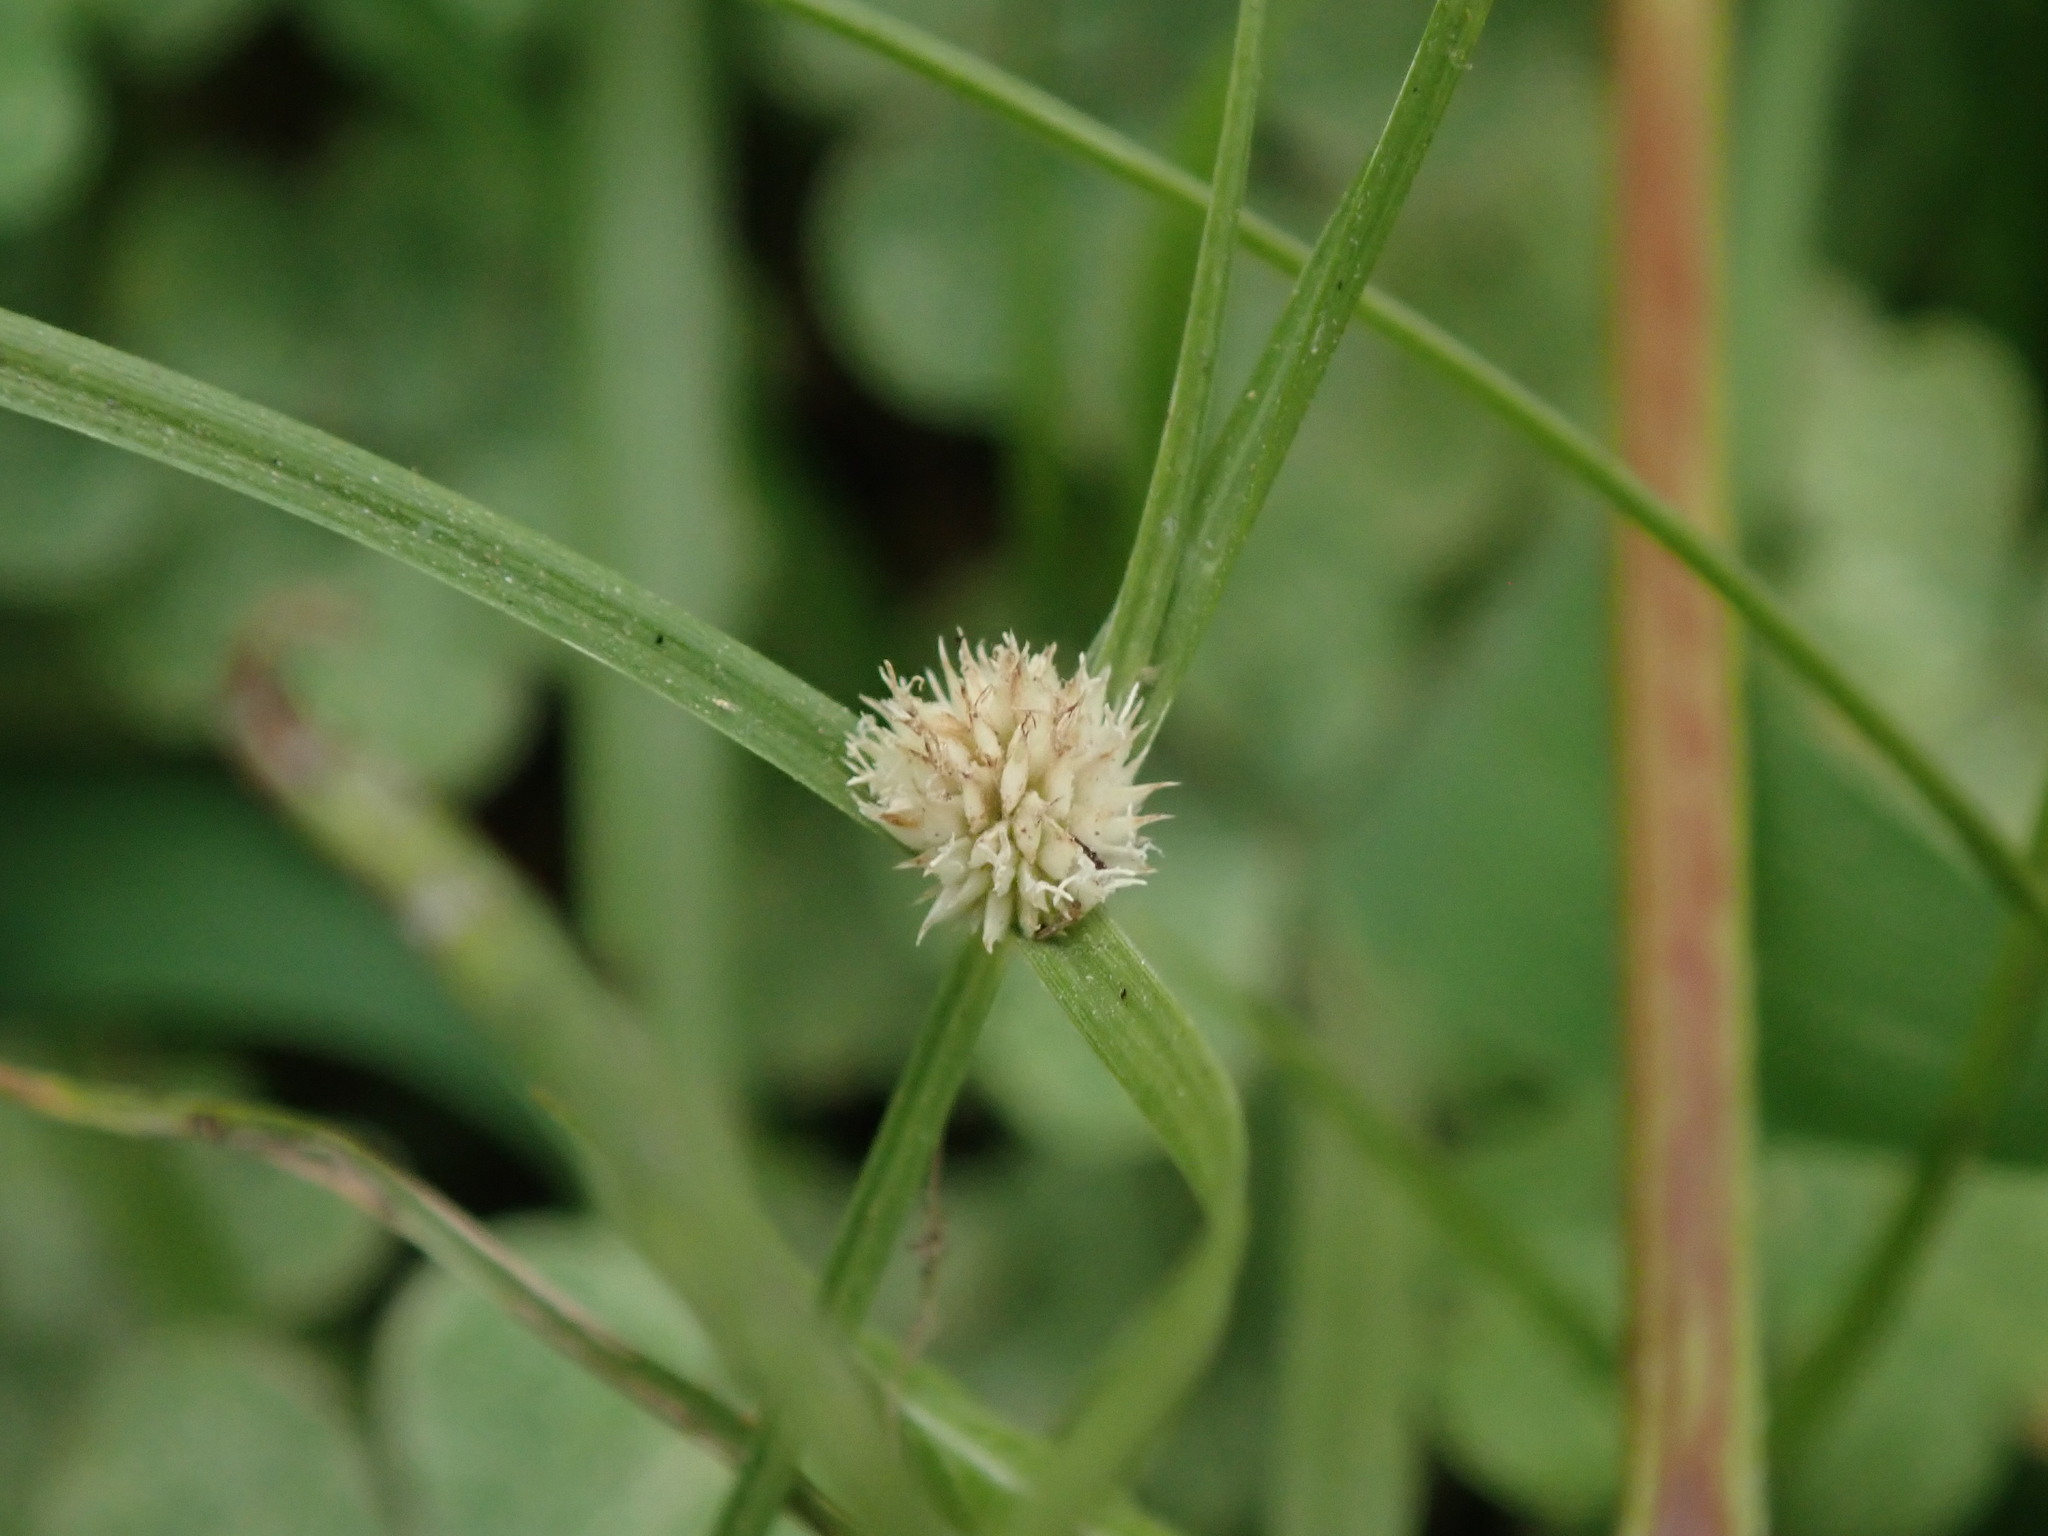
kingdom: Plantae
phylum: Tracheophyta
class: Liliopsida
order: Poales
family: Cyperaceae
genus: Cyperus
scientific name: Cyperus mindorensis
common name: Flatsedge
